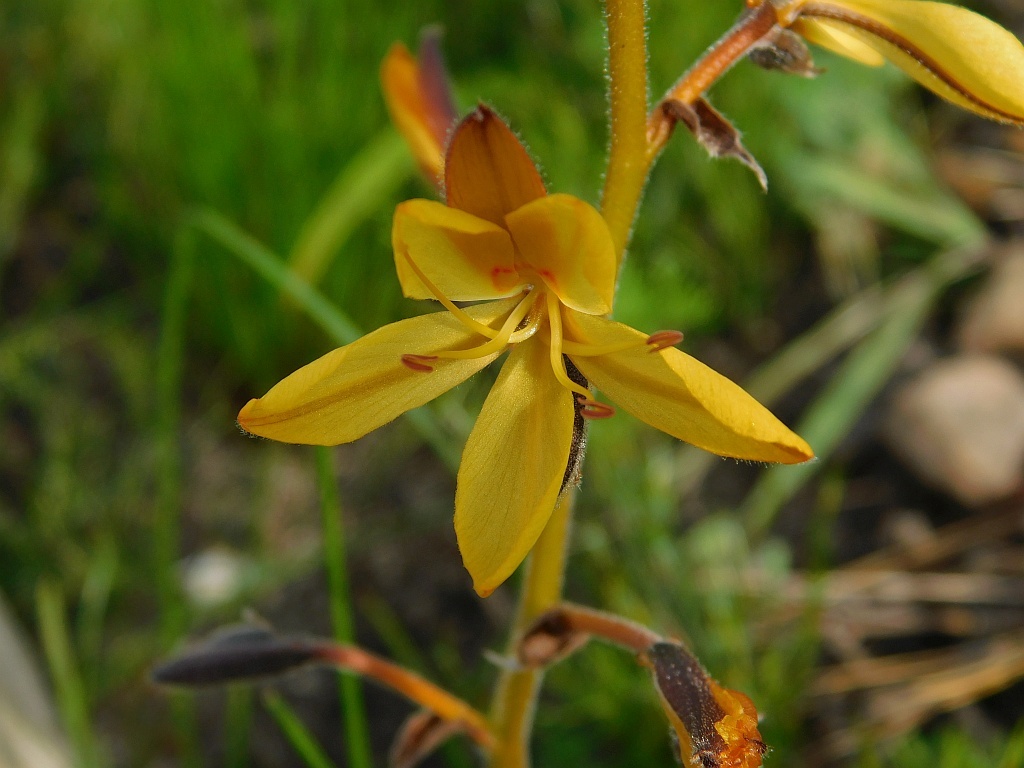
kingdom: Plantae
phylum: Tracheophyta
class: Liliopsida
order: Commelinales
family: Haemodoraceae
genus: Wachendorfia
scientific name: Wachendorfia paniculata
